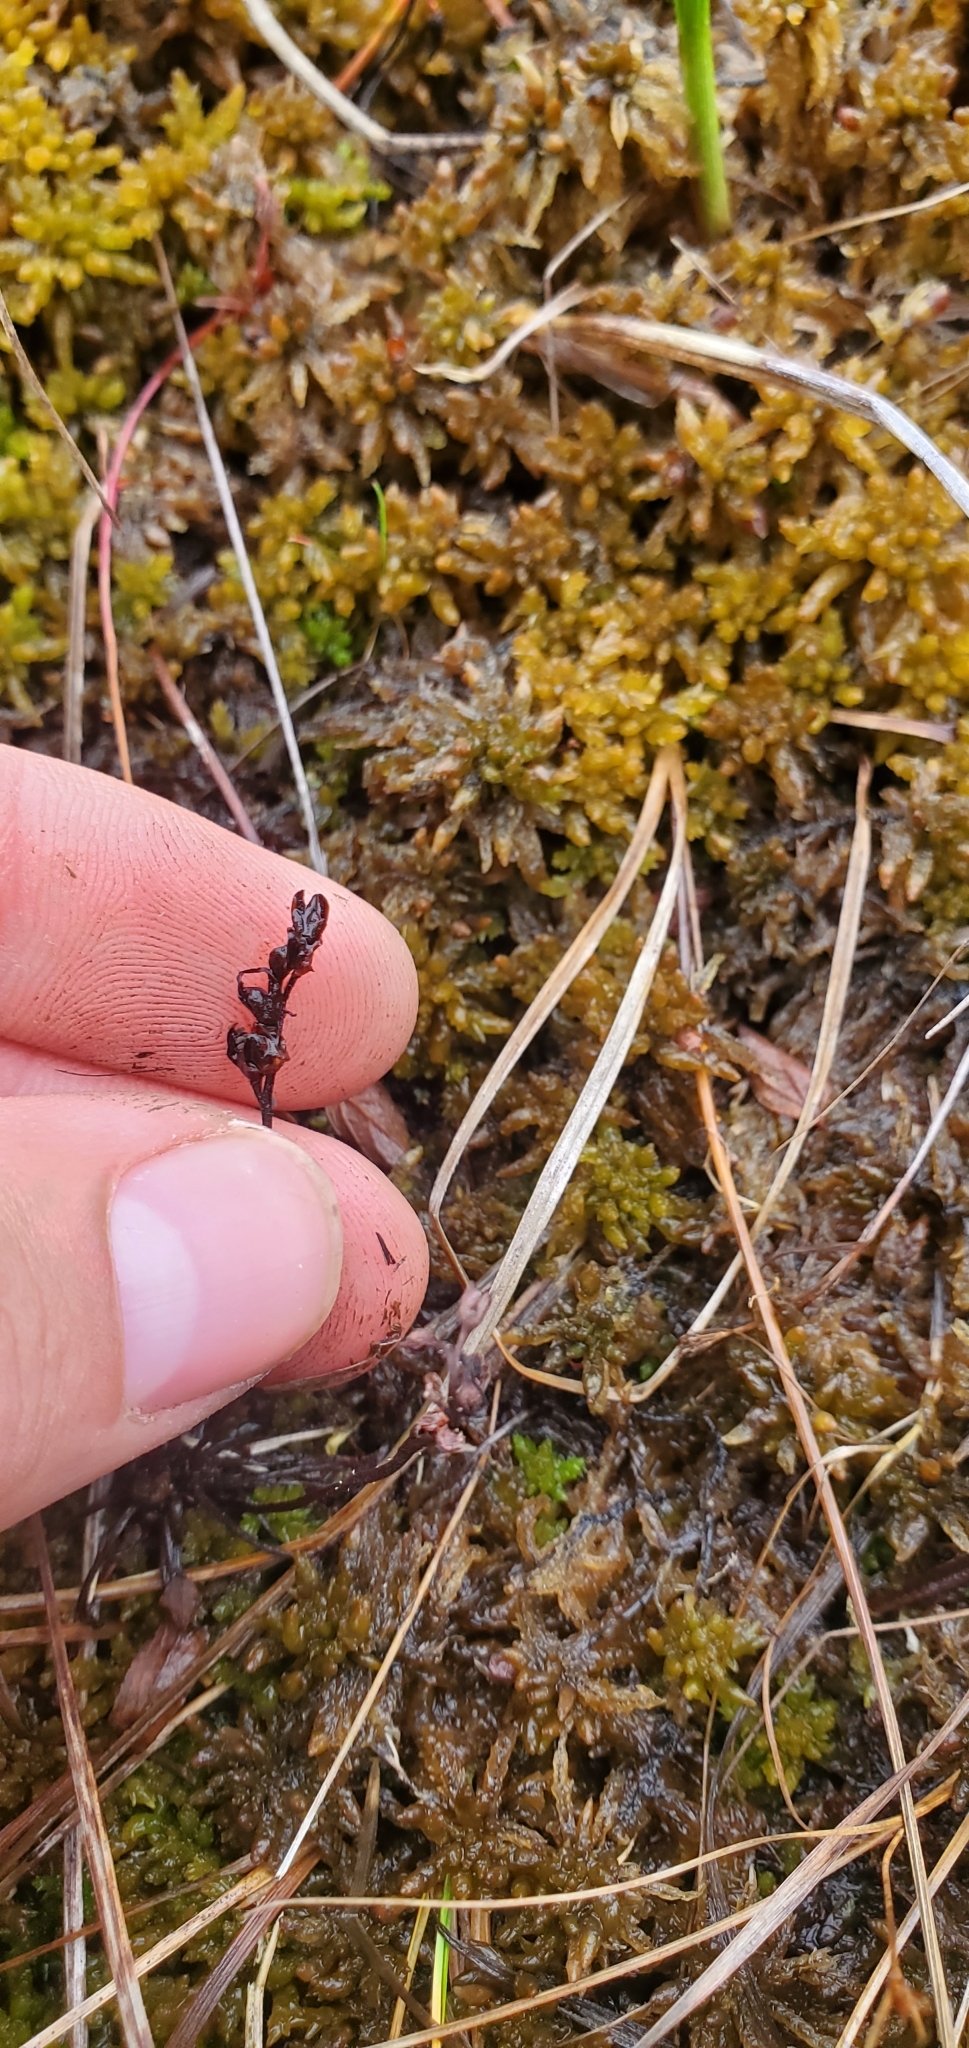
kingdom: Plantae
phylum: Tracheophyta
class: Magnoliopsida
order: Caryophyllales
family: Droseraceae
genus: Drosera
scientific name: Drosera intermedia
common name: Oblong-leaved sundew
